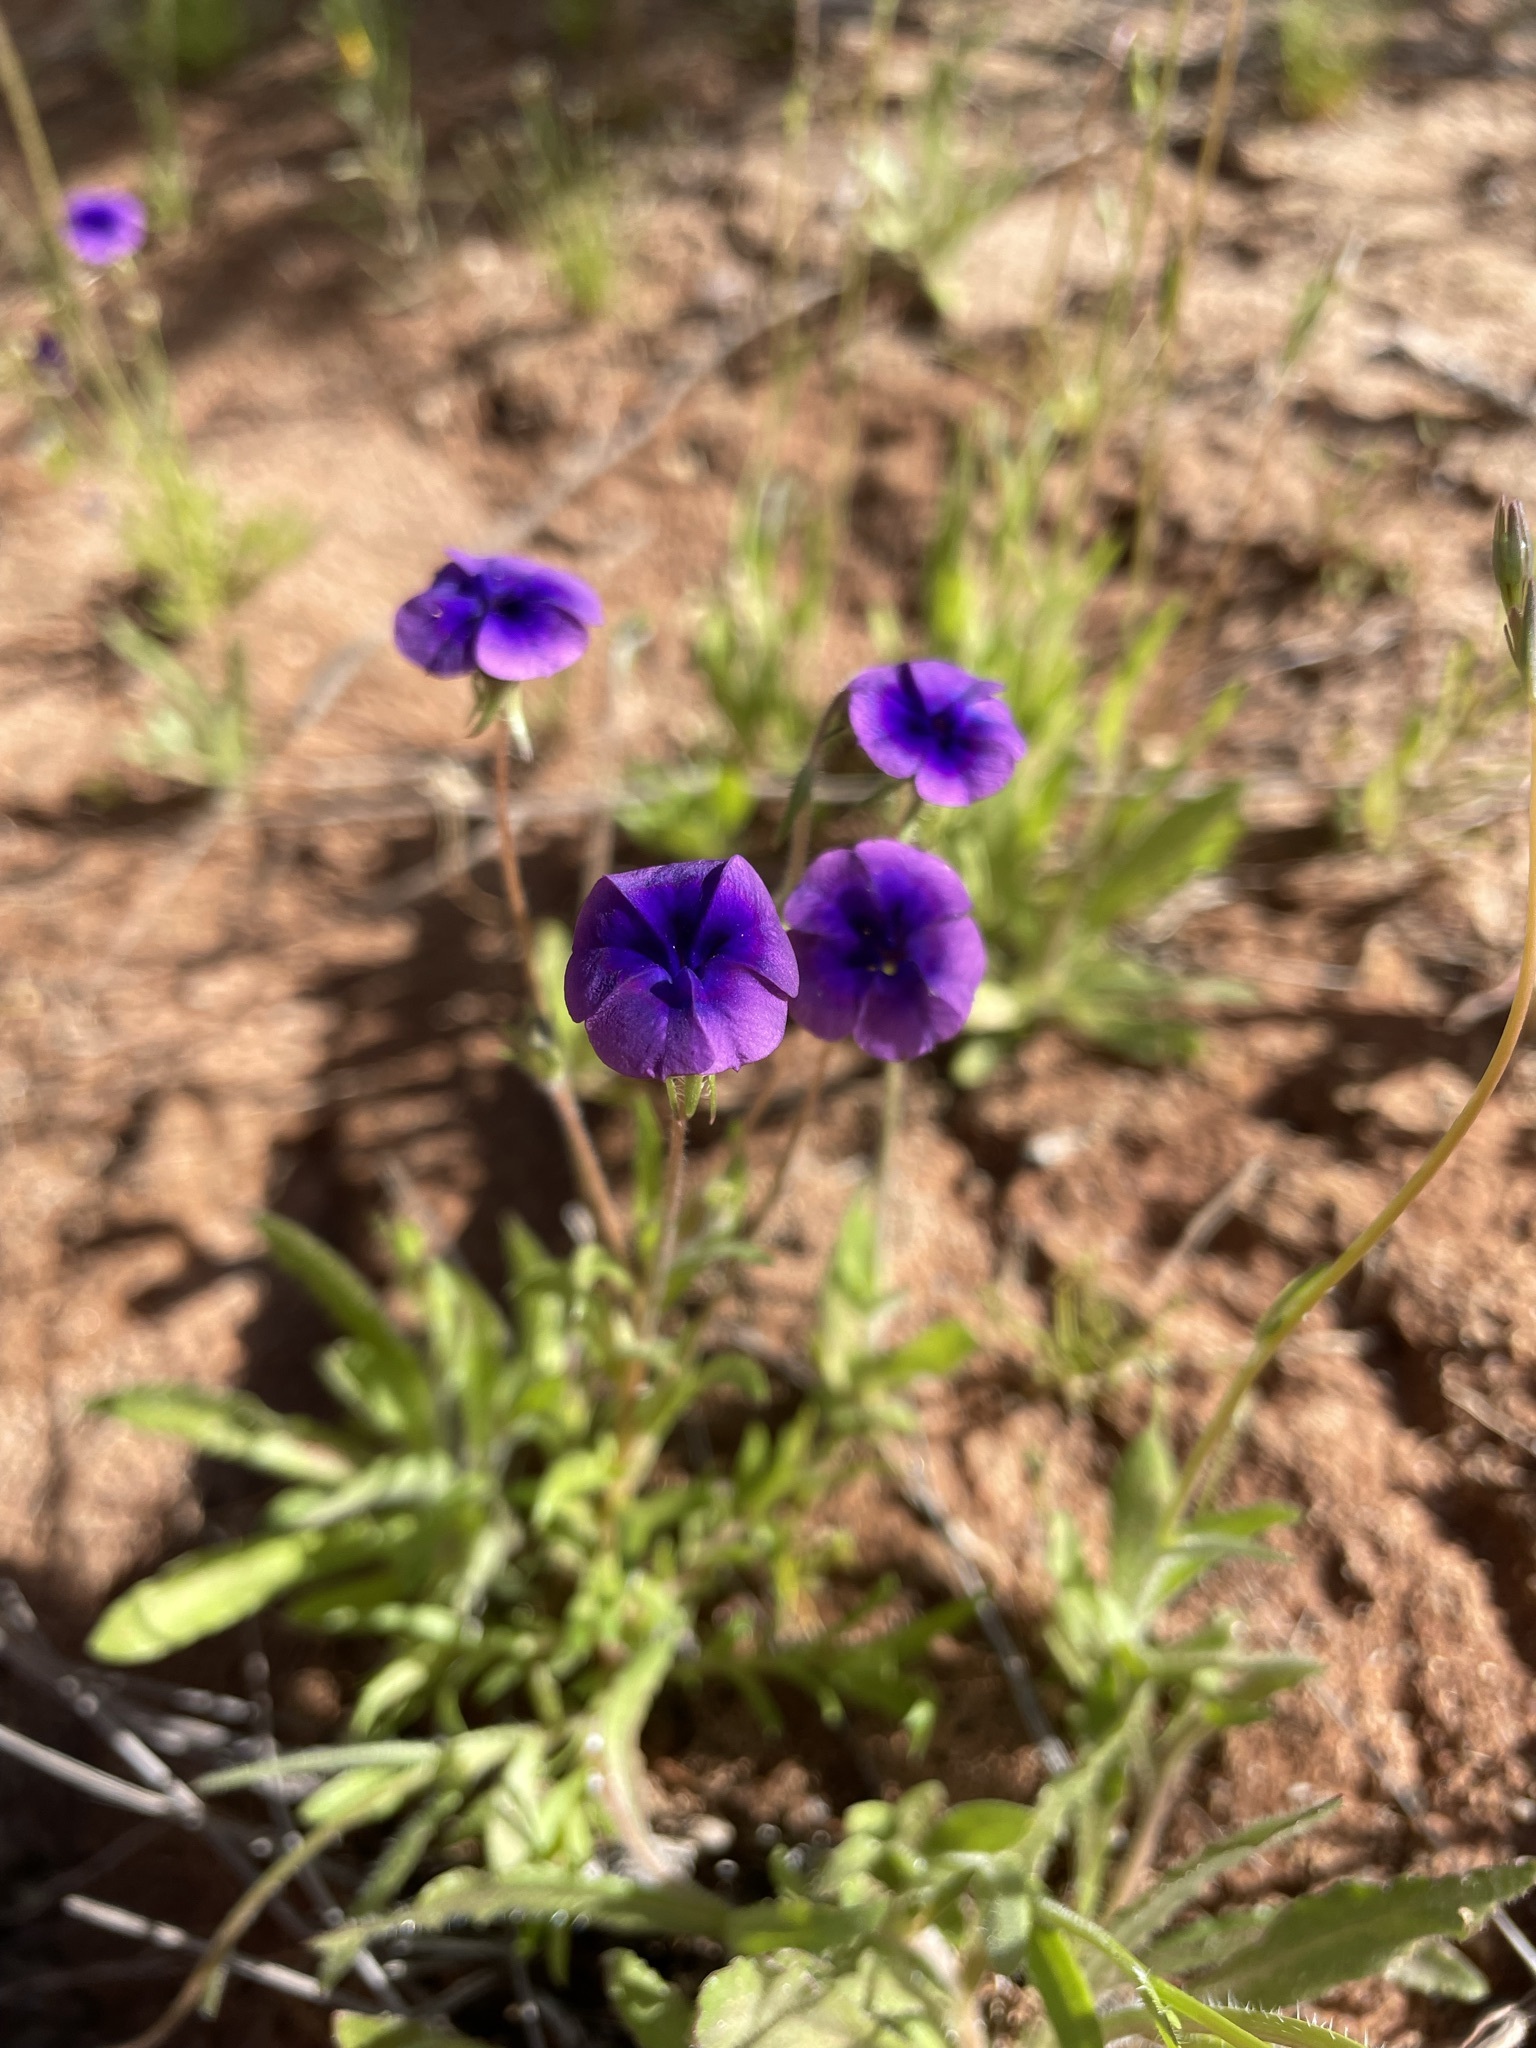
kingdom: Plantae
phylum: Tracheophyta
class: Magnoliopsida
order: Asterales
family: Campanulaceae
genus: Monopsis
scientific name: Monopsis debilis
